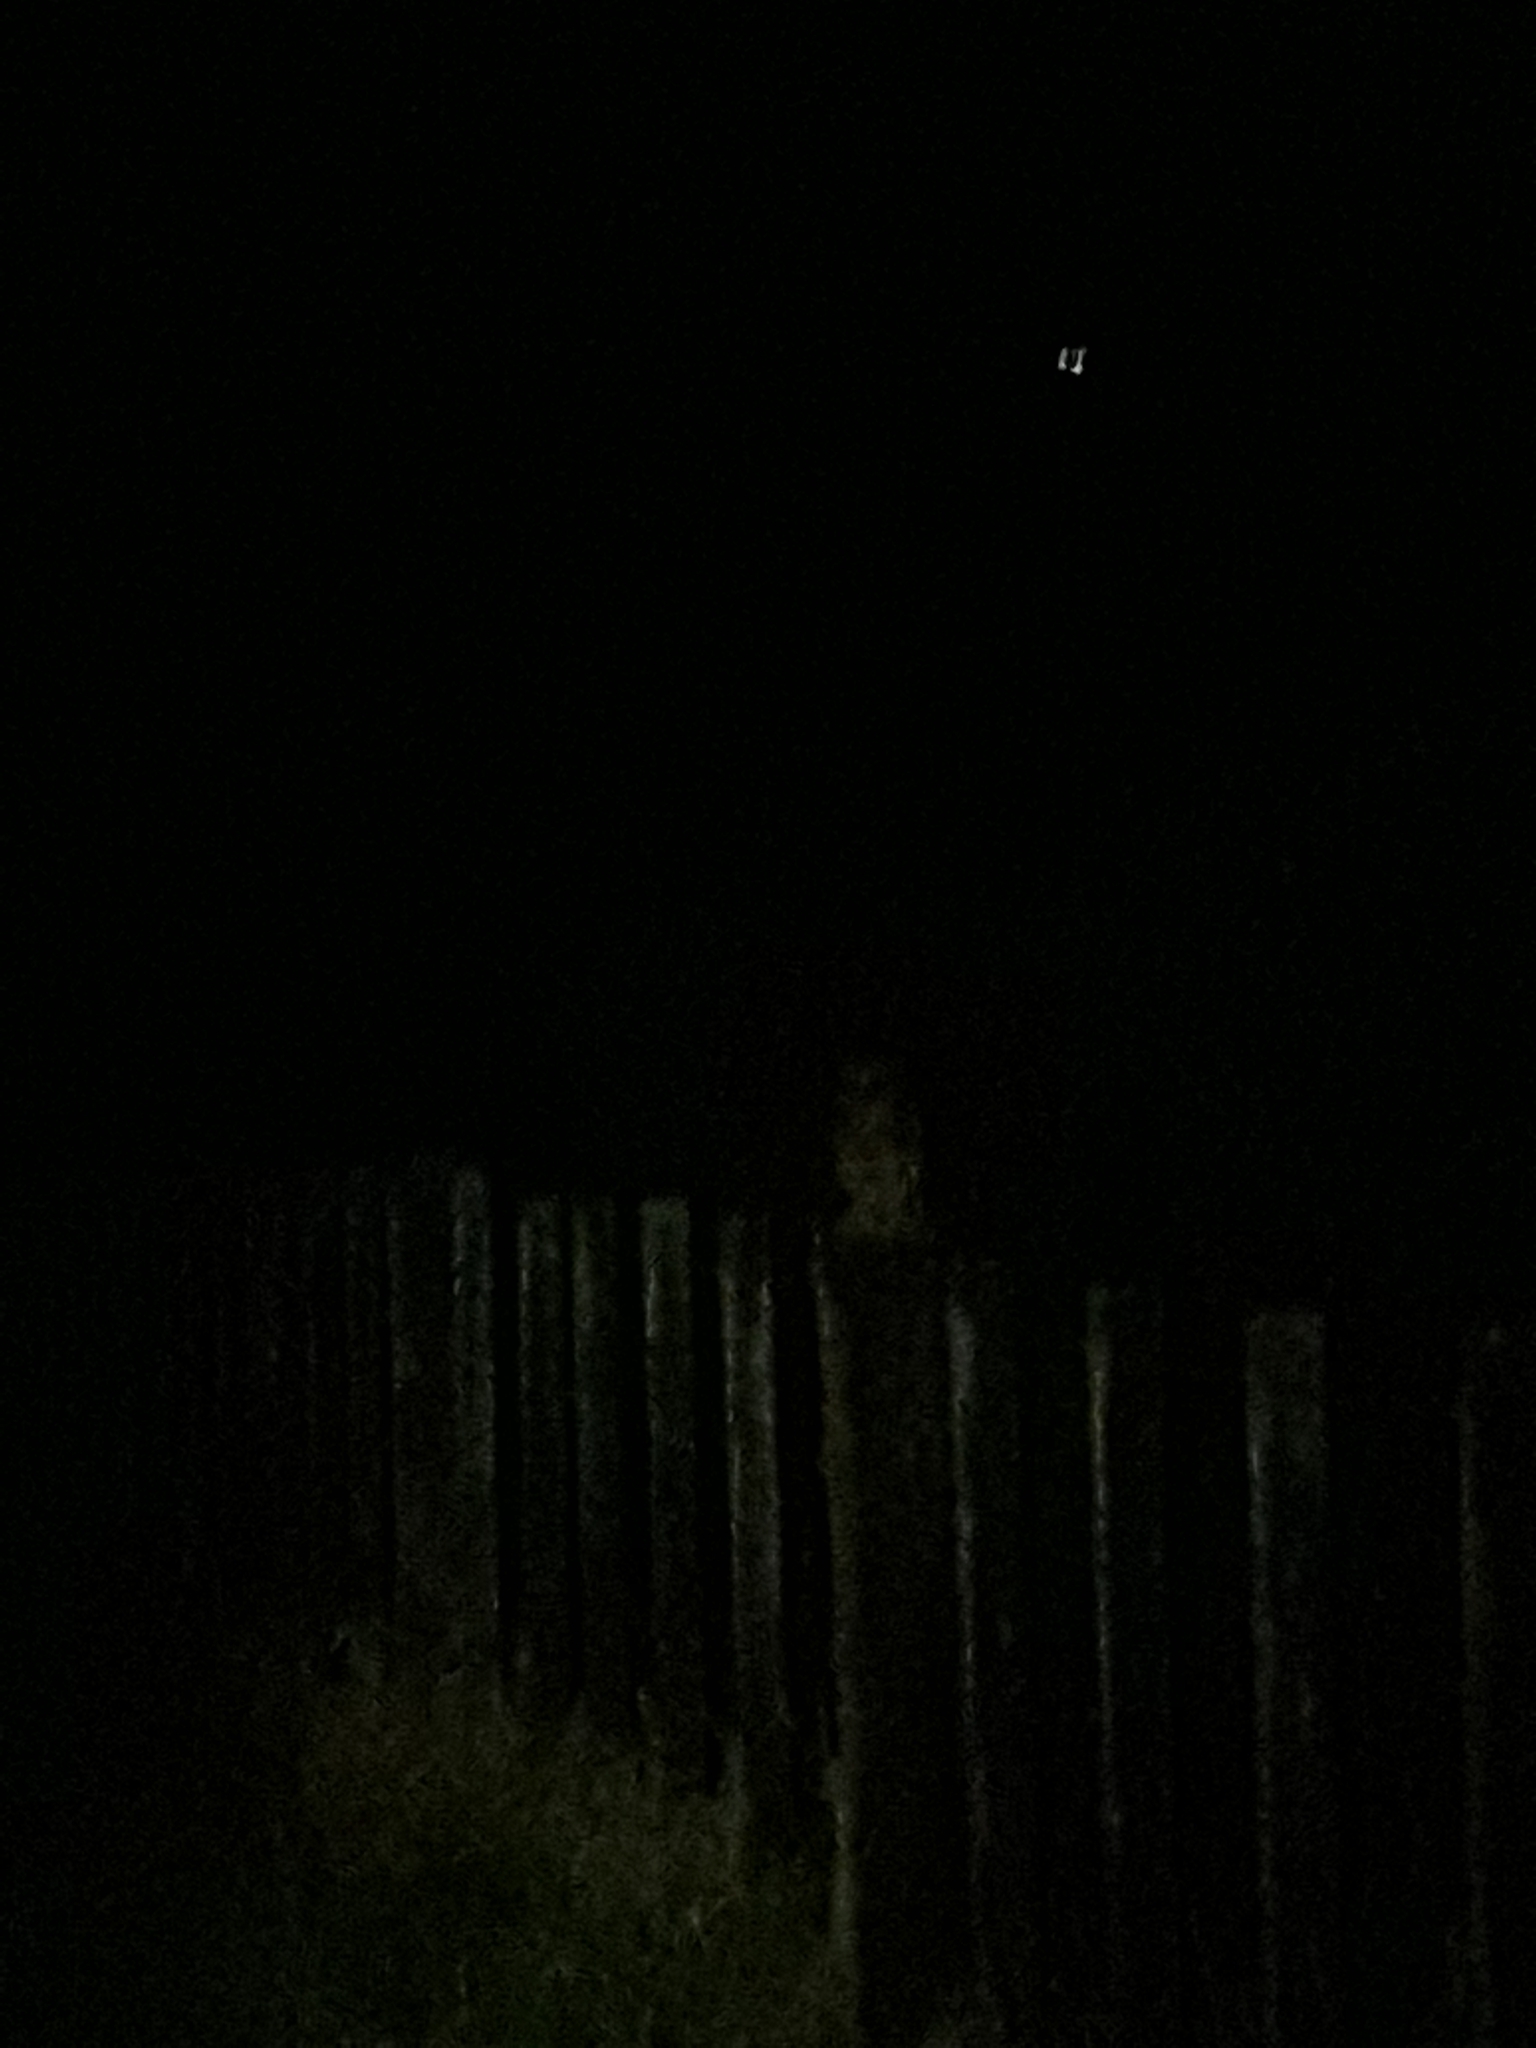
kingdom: Animalia
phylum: Chordata
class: Aves
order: Strigiformes
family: Strigidae
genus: Ninox
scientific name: Ninox novaeseelandiae
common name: Morepork
